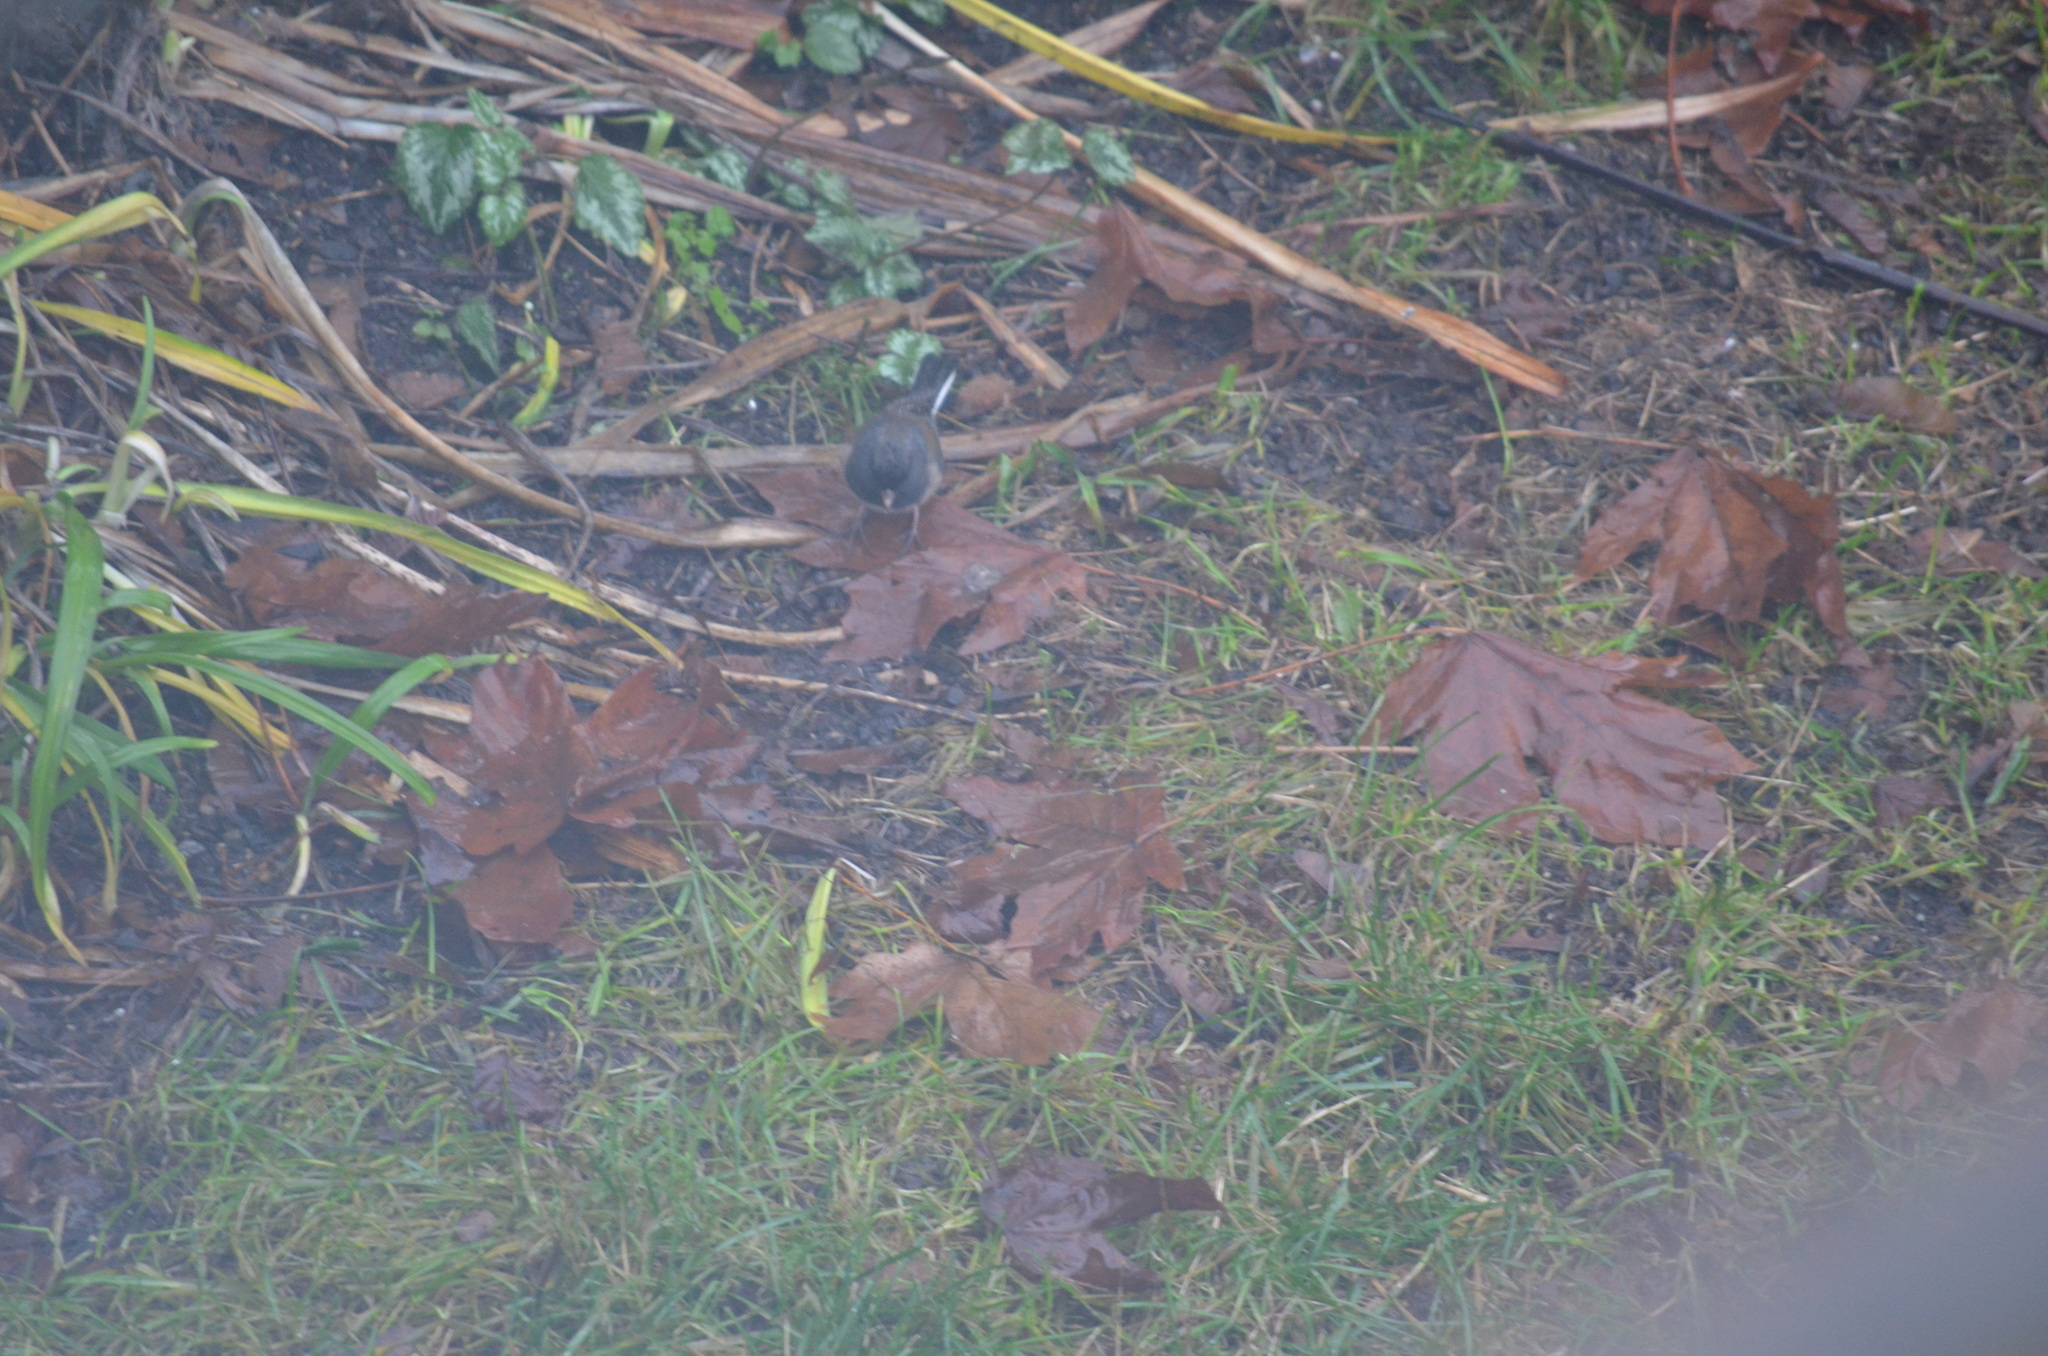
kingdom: Animalia
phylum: Chordata
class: Aves
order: Passeriformes
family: Passerellidae
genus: Junco
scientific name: Junco hyemalis
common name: Dark-eyed junco
